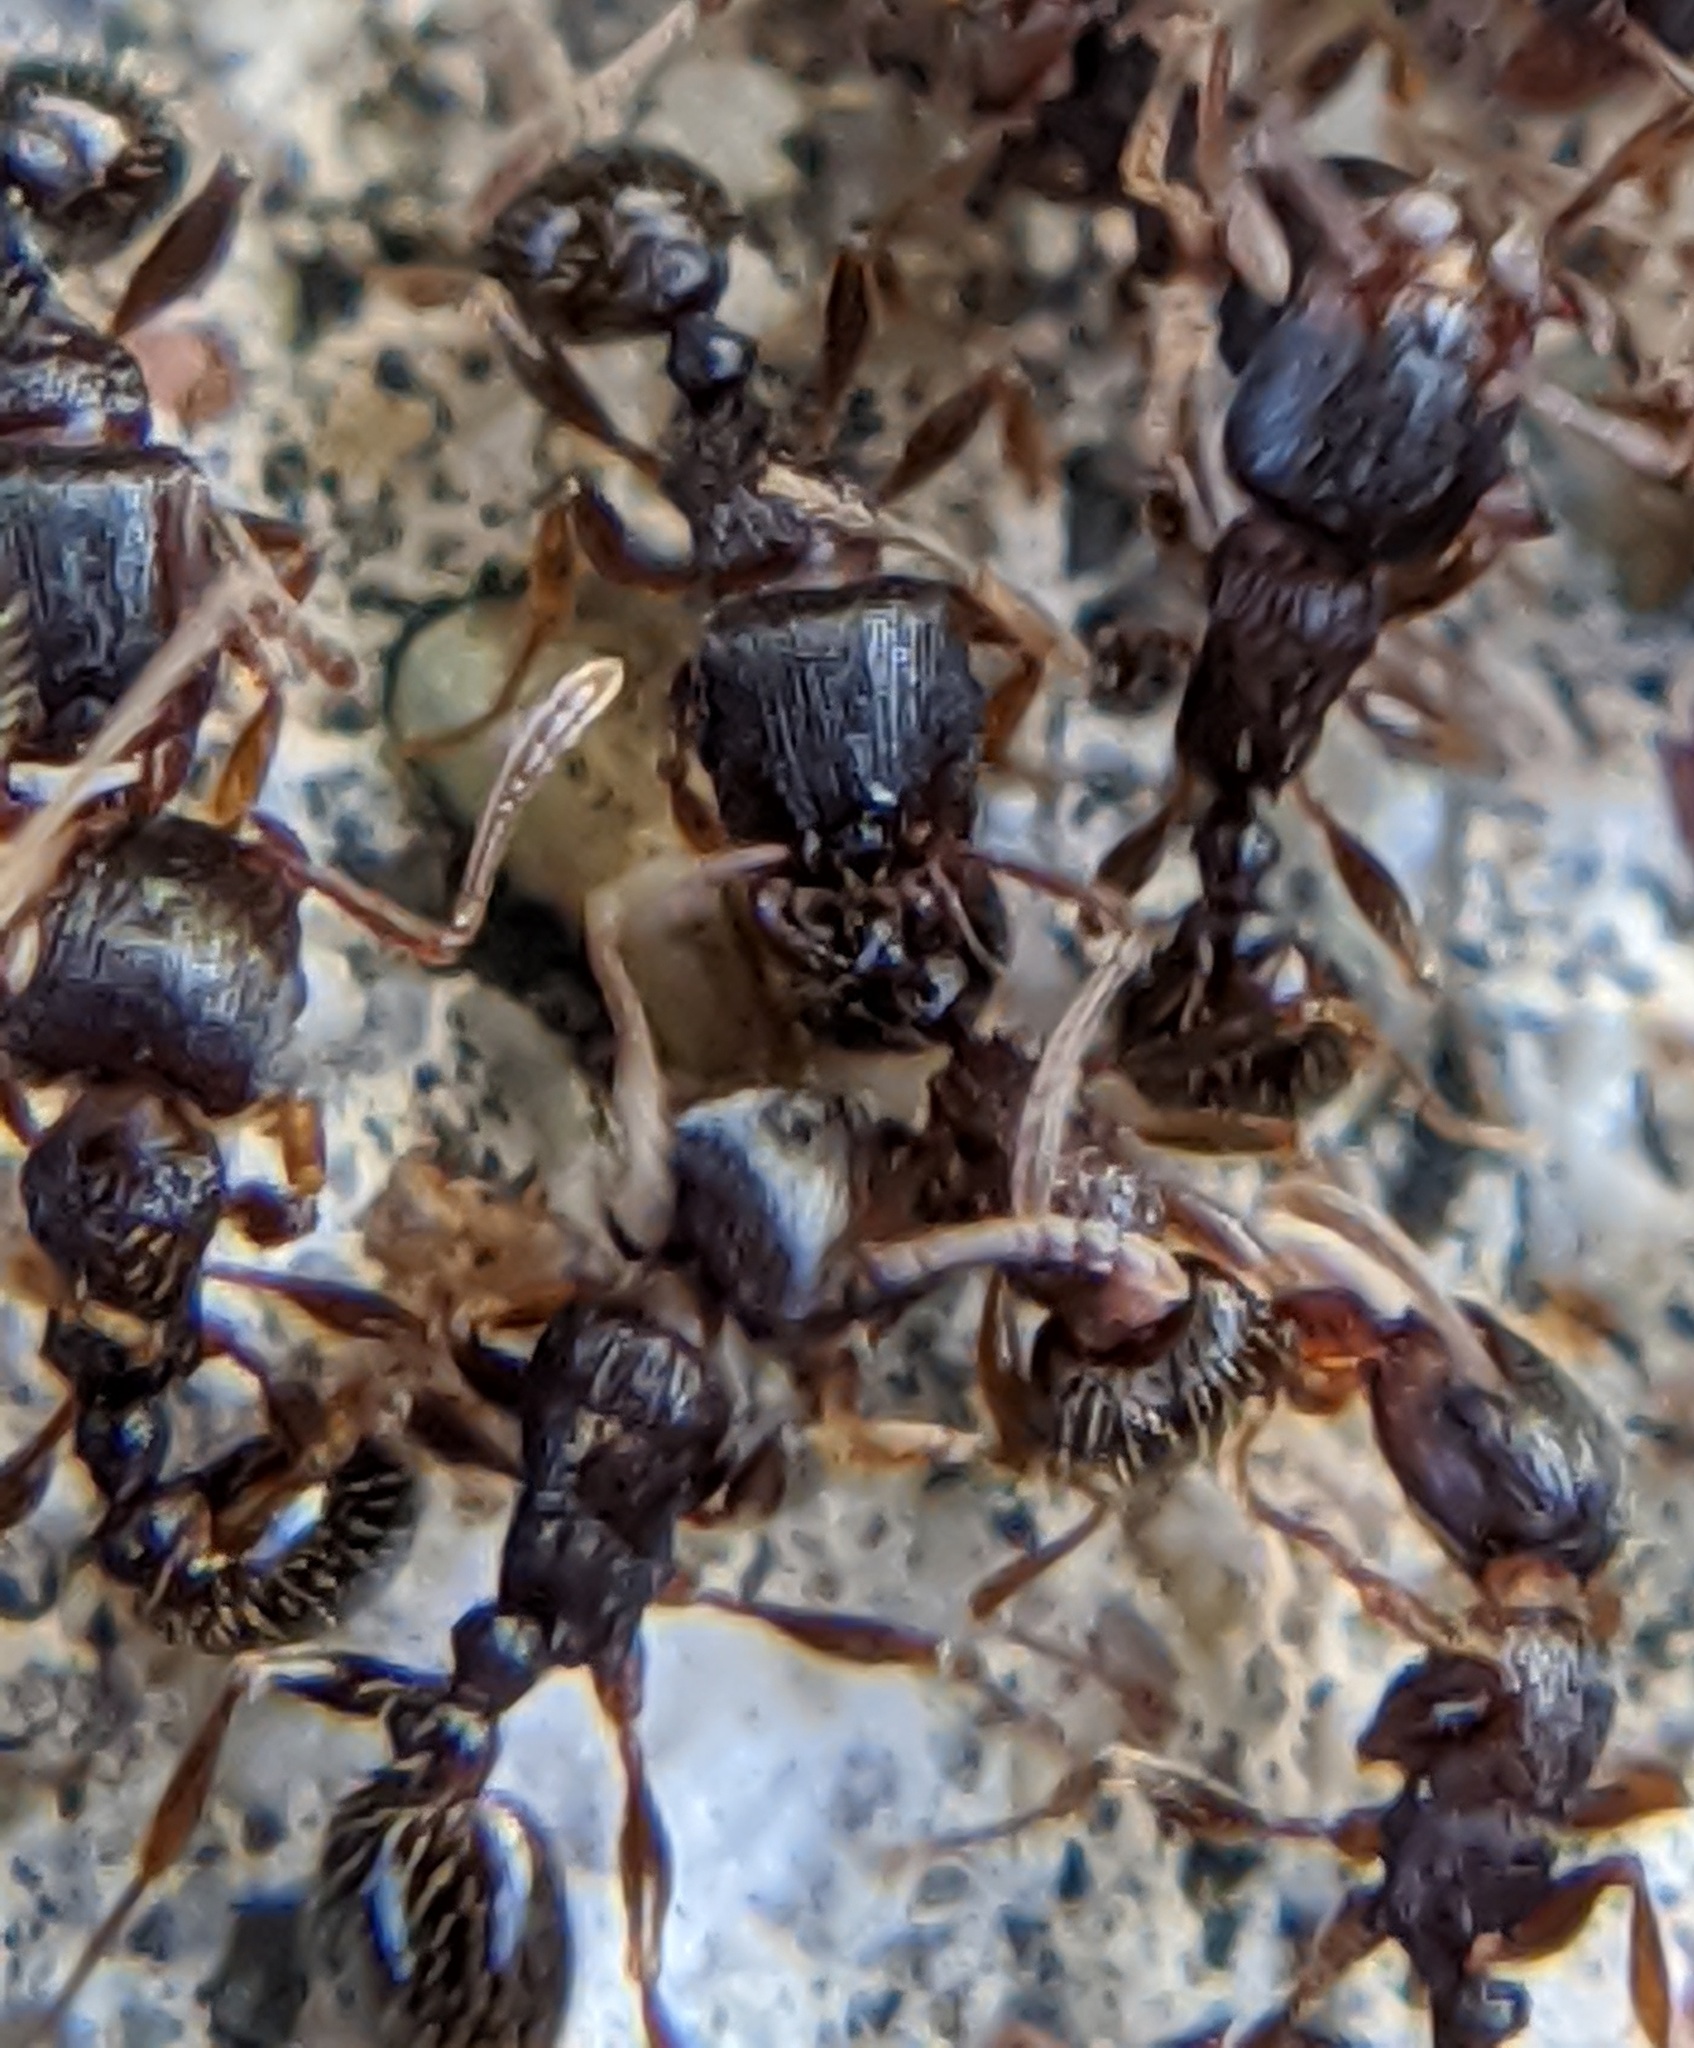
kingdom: Animalia
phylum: Arthropoda
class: Insecta
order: Hymenoptera
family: Formicidae
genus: Tetramorium
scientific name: Tetramorium immigrans
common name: Pavement ant
